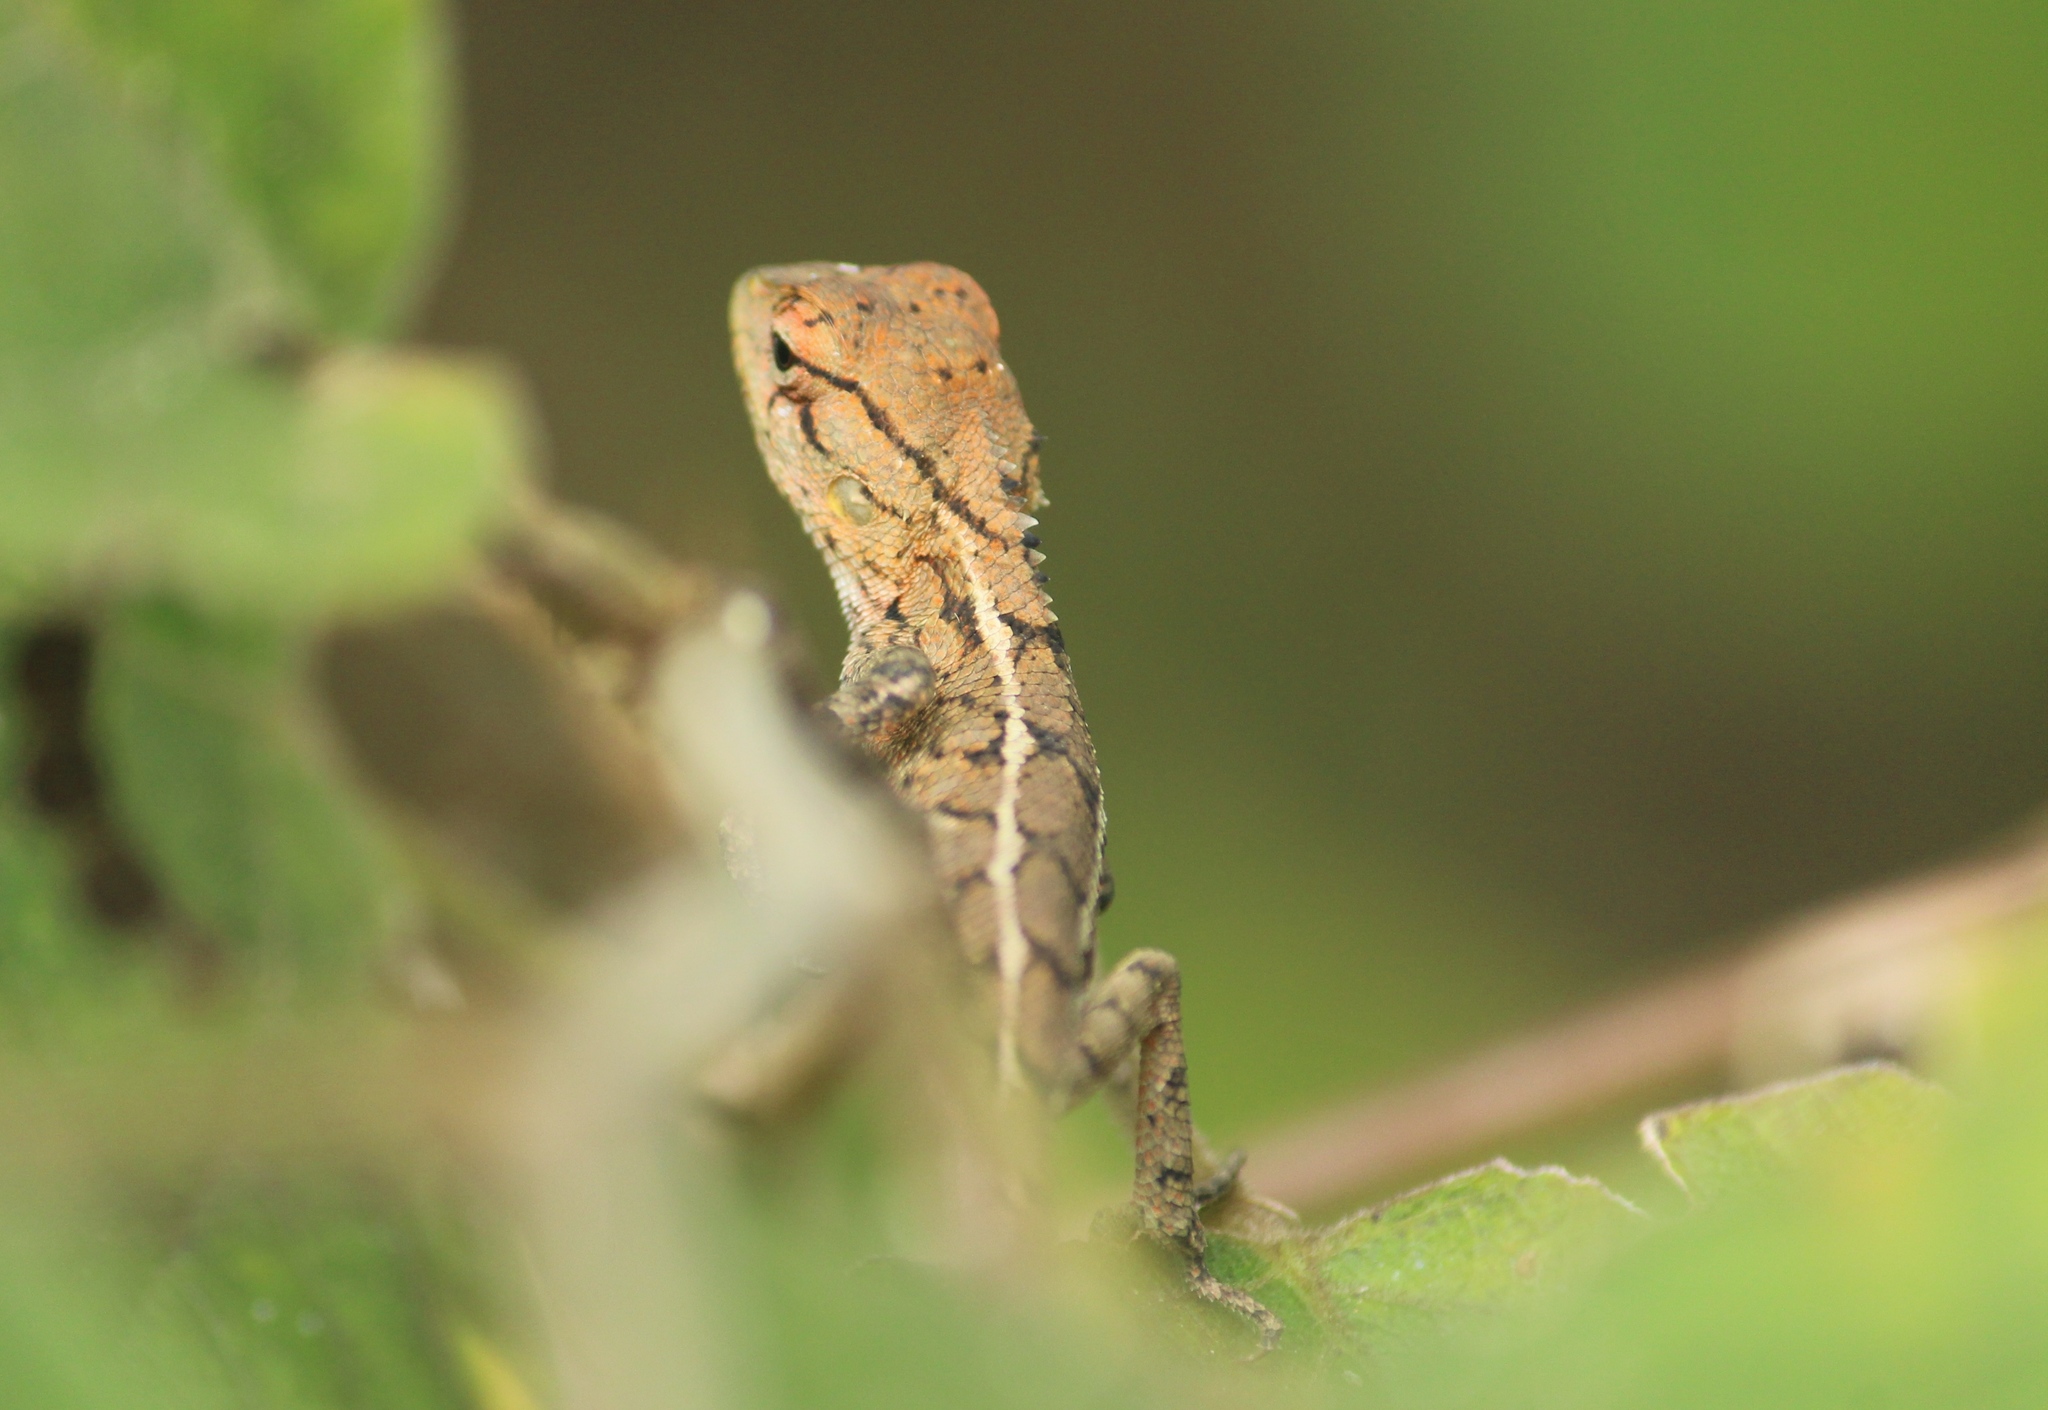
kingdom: Animalia
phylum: Chordata
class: Squamata
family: Agamidae
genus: Calotes
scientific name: Calotes versicolor
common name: Oriental garden lizard
